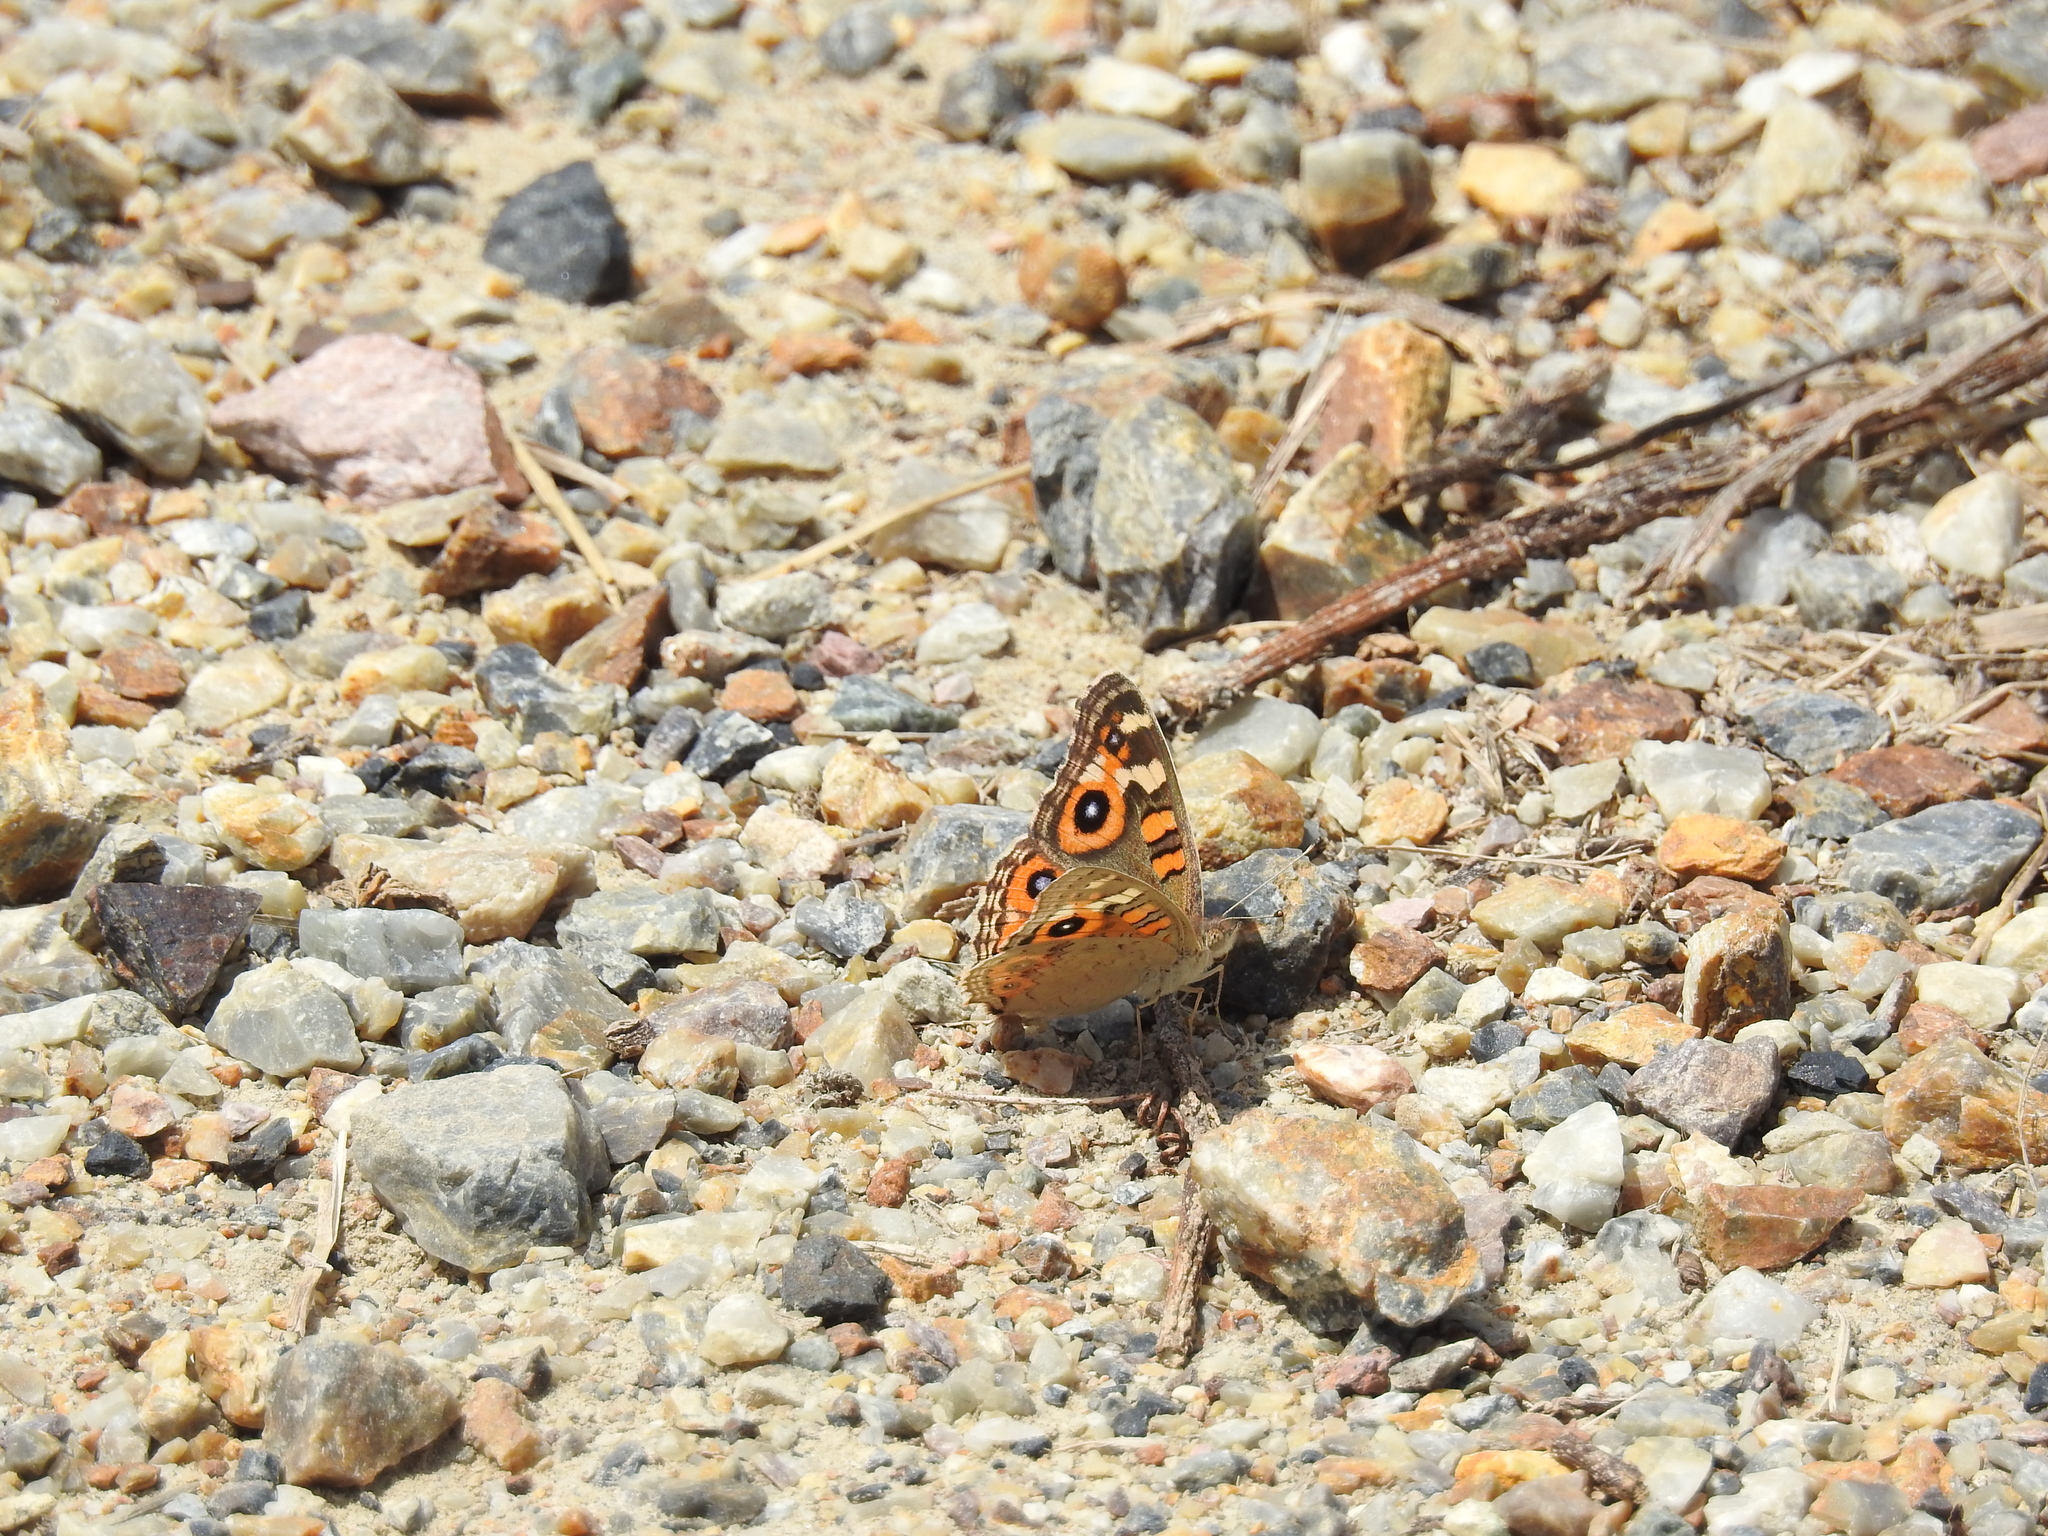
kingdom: Animalia
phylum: Arthropoda
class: Insecta
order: Lepidoptera
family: Nymphalidae
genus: Junonia
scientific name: Junonia villida
